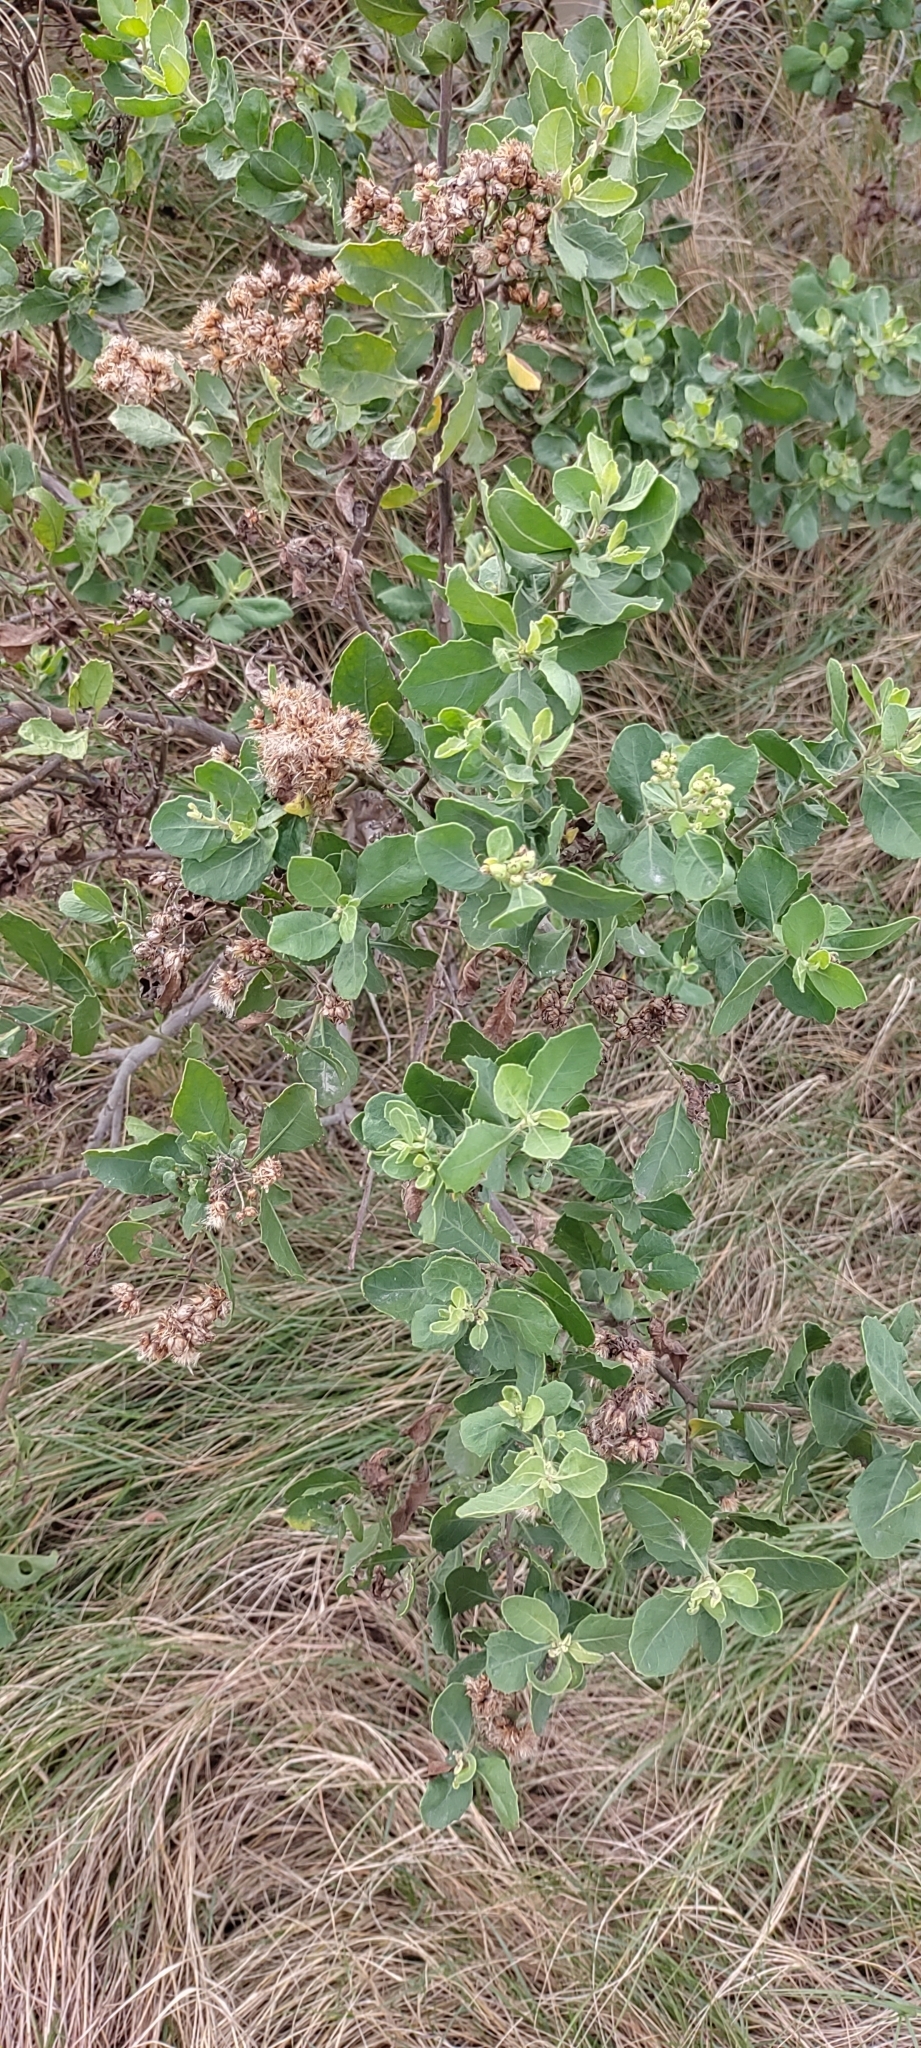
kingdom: Plantae
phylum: Tracheophyta
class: Magnoliopsida
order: Asterales
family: Asteraceae
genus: Pluchea
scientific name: Pluchea indica
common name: Indian fleabane
